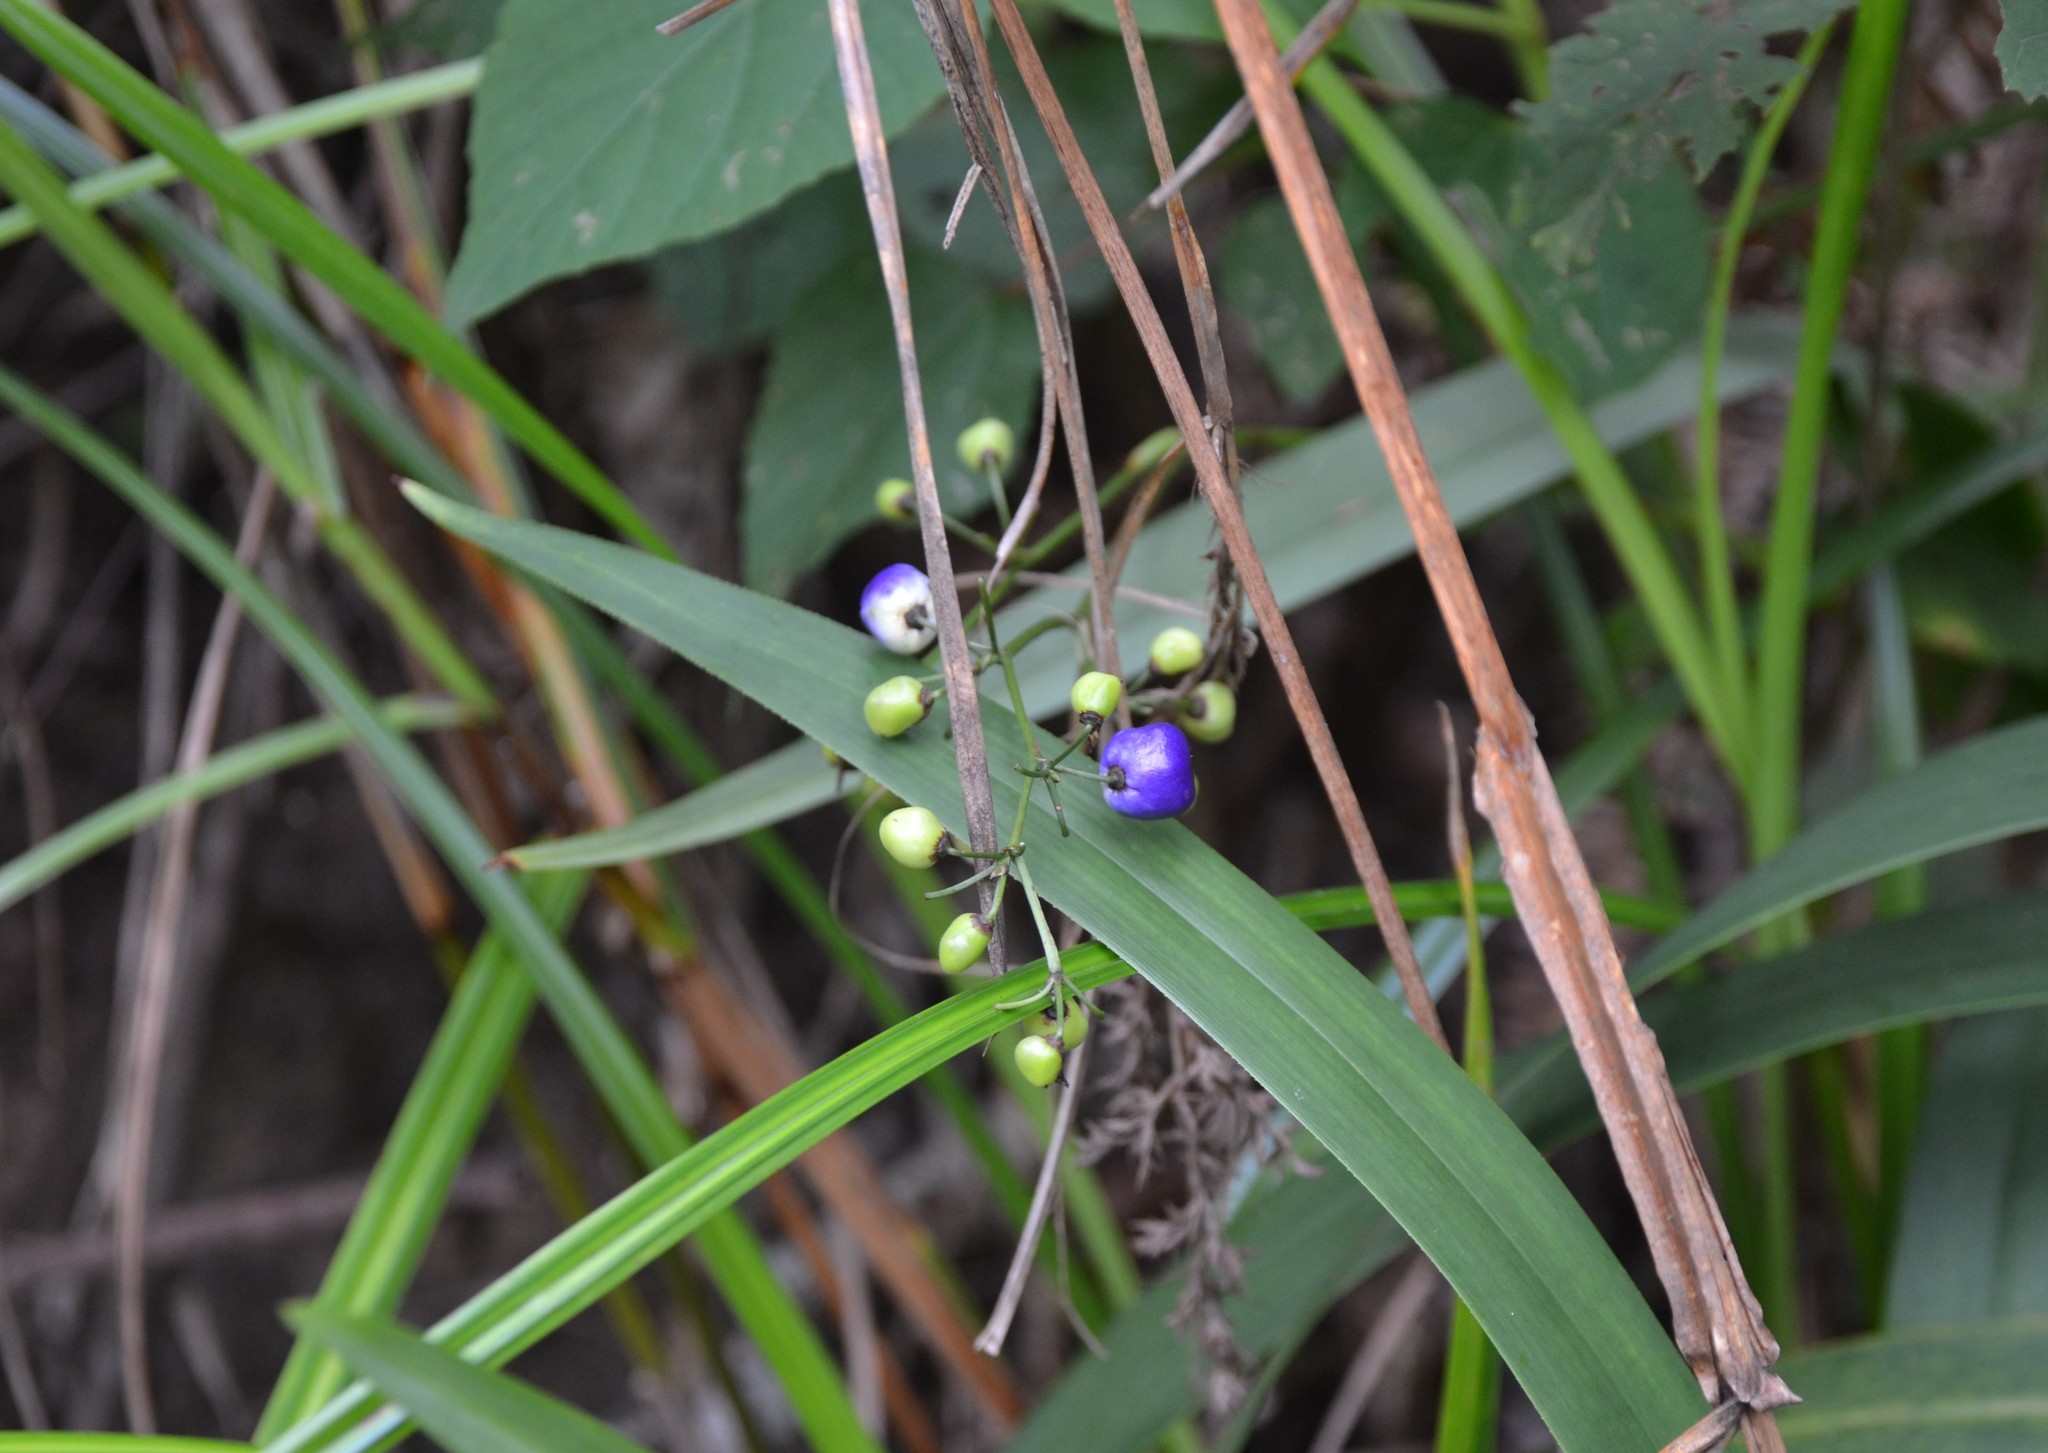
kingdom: Plantae
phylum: Tracheophyta
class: Liliopsida
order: Asparagales
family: Asphodelaceae
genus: Dianella
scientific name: Dianella ensifolia
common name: New zealand lilyplant
